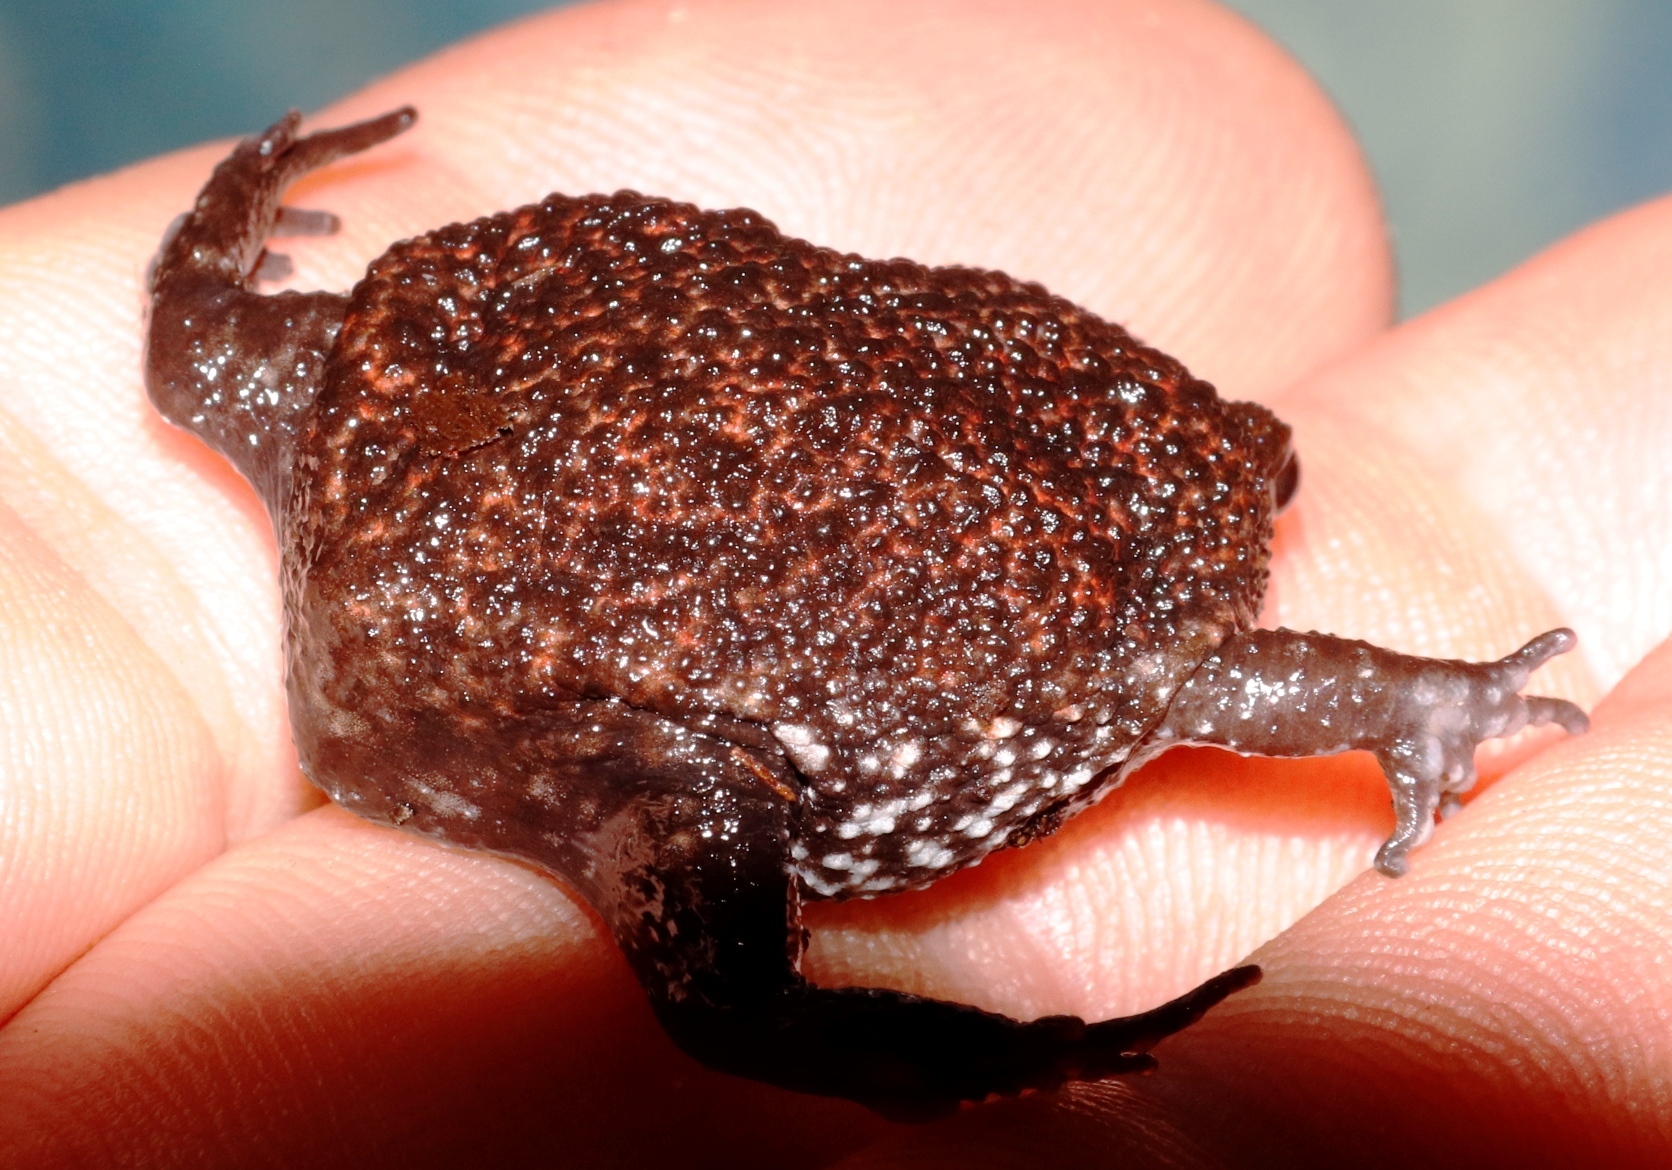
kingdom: Animalia
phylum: Chordata
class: Amphibia
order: Anura
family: Brevicipitidae
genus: Breviceps
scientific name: Breviceps acutirostris
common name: Strawberry rain frog
